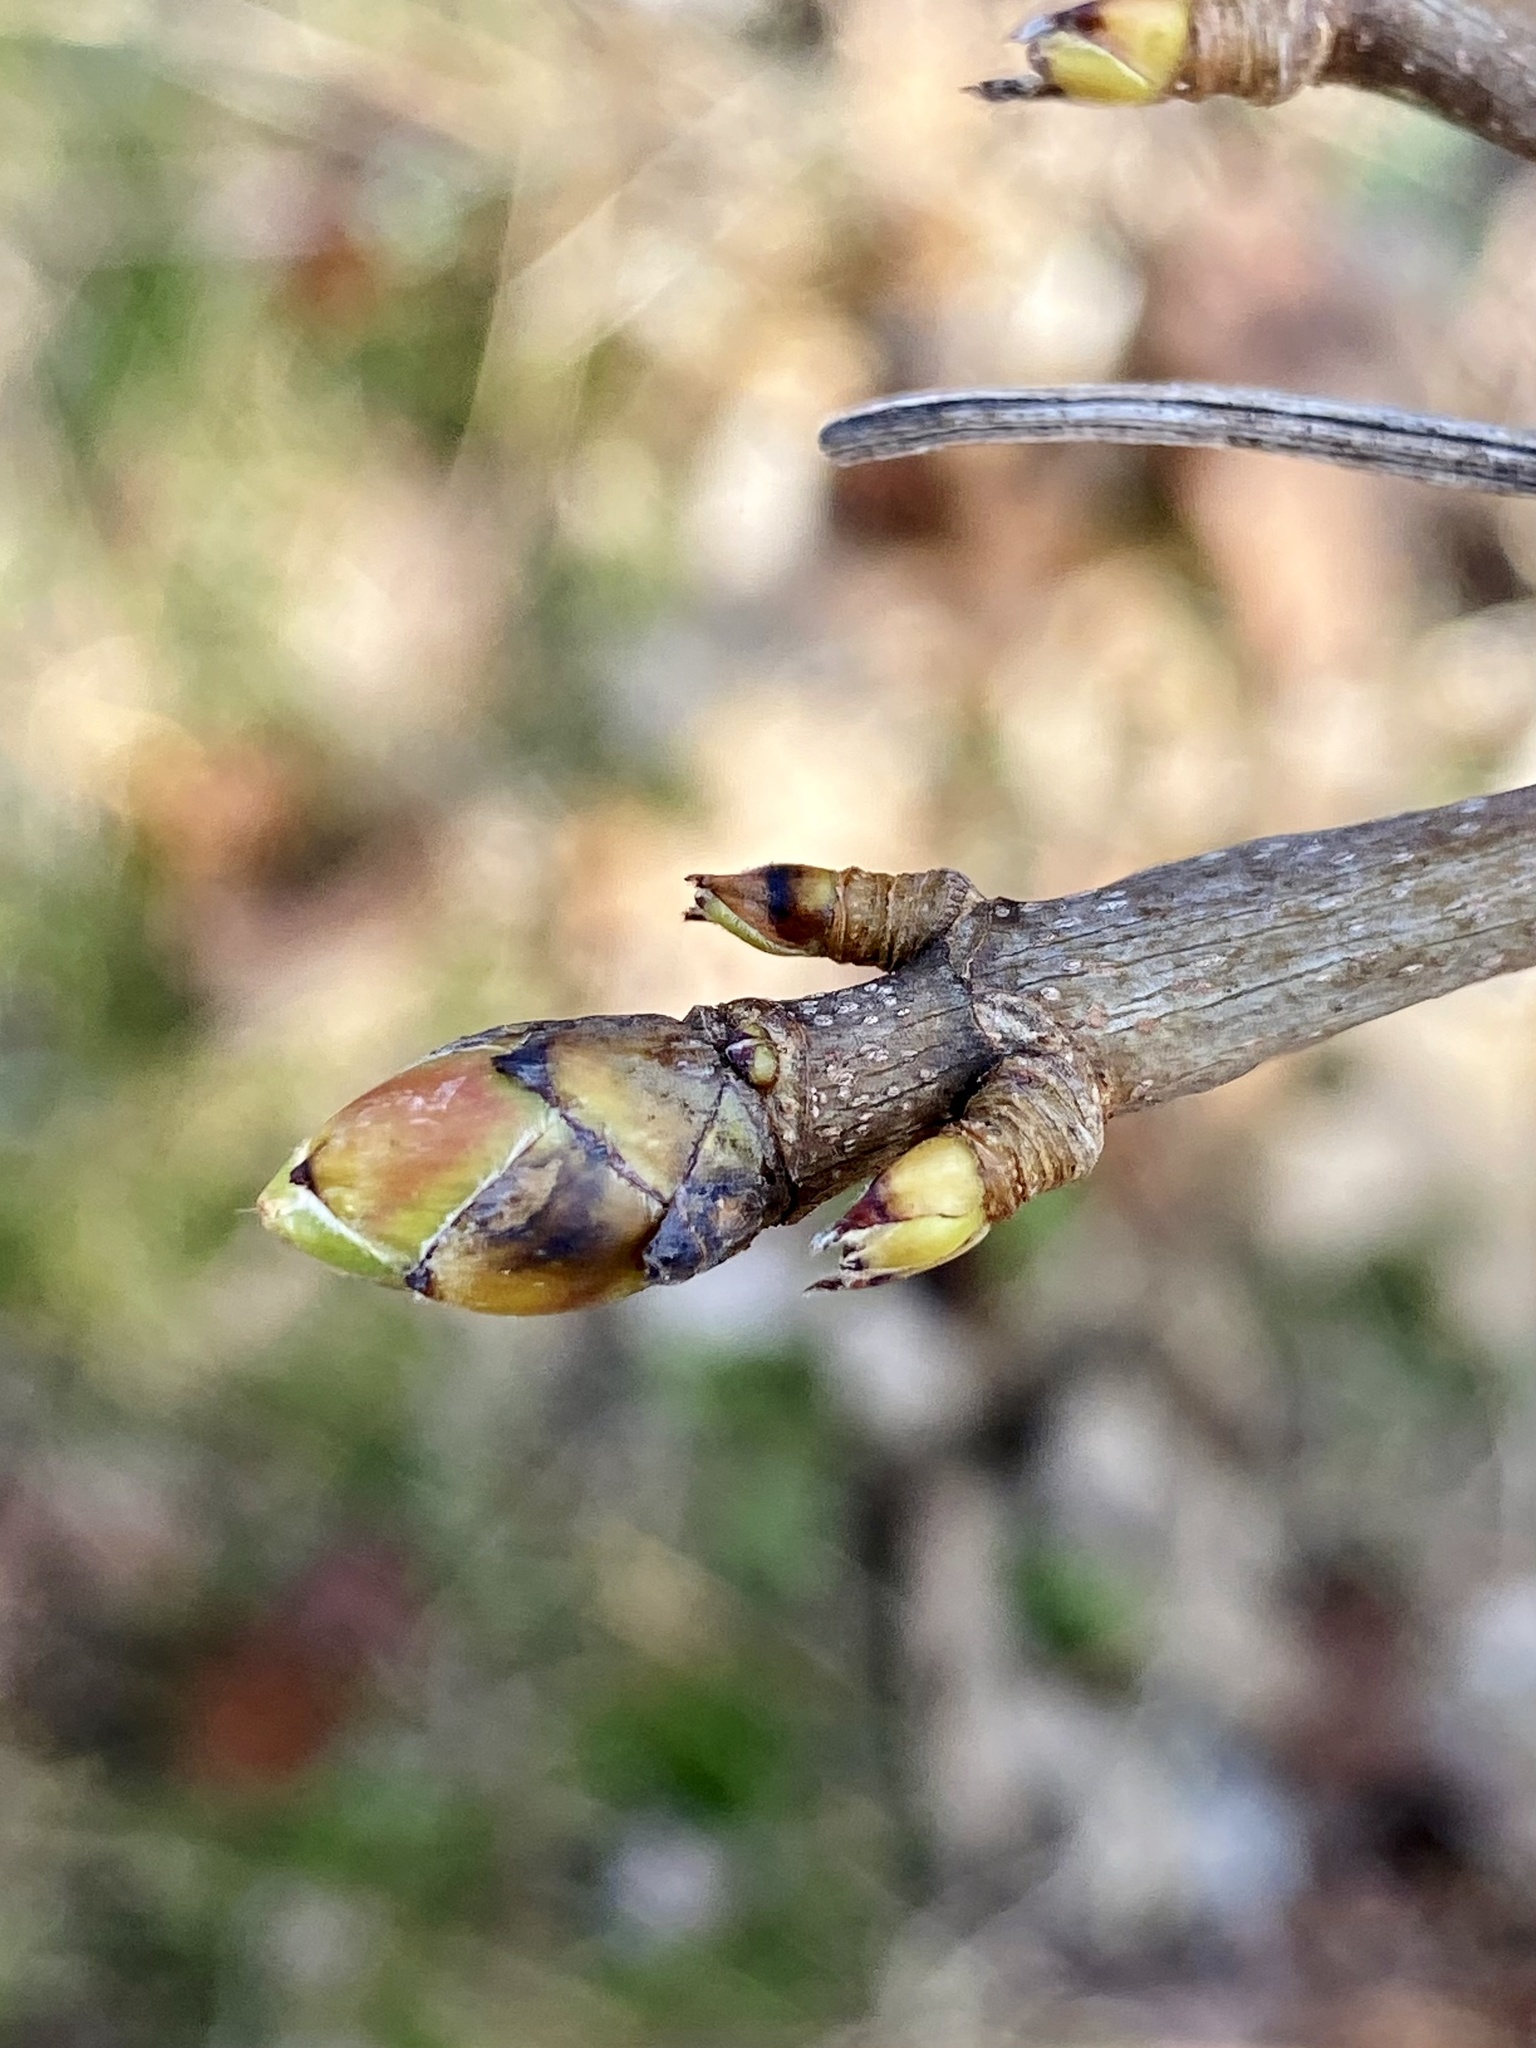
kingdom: Plantae
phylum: Tracheophyta
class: Magnoliopsida
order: Sapindales
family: Sapindaceae
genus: Acer
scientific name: Acer pseudoplatanus
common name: Sycamore
